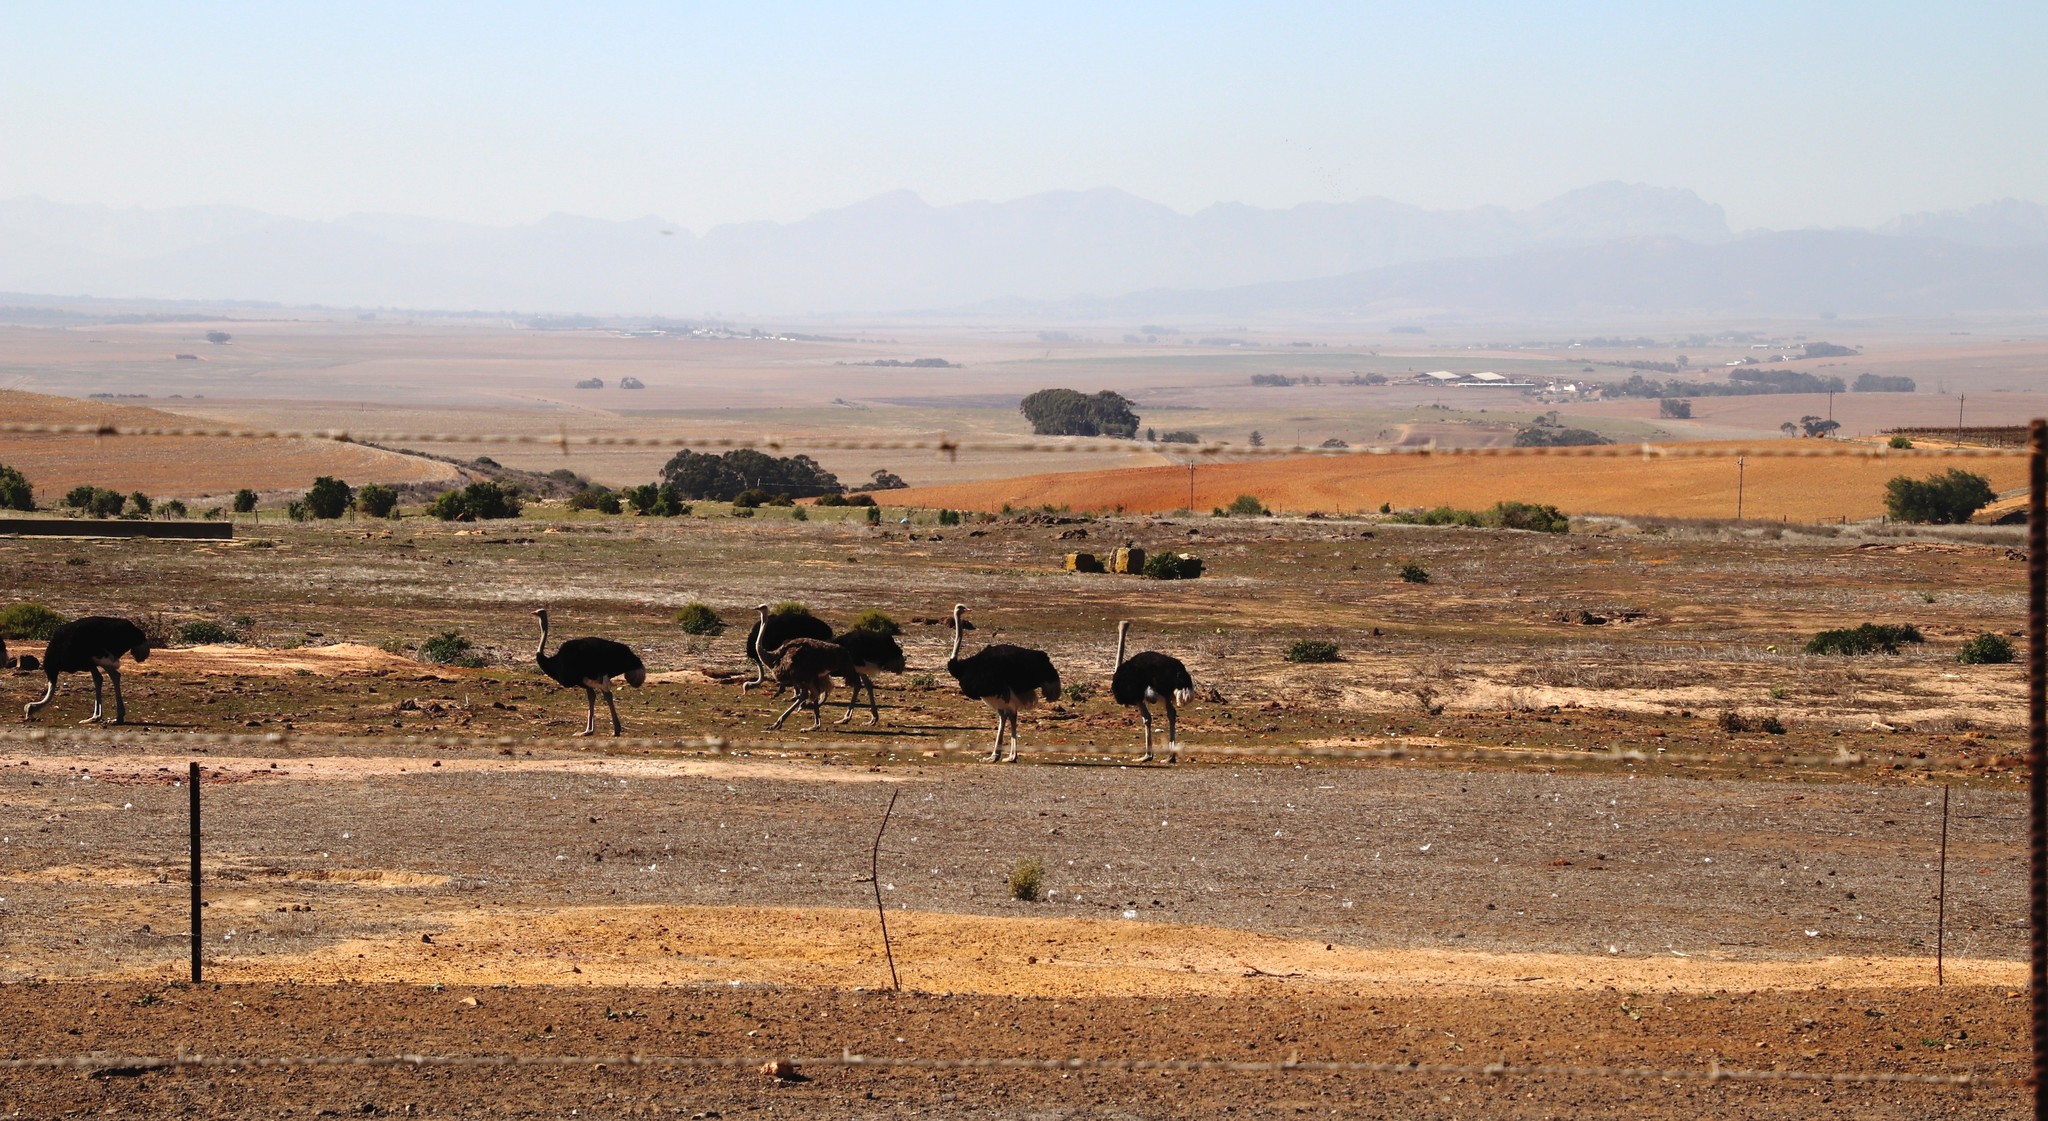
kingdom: Animalia
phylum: Chordata
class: Aves
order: Struthioniformes
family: Struthionidae
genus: Struthio
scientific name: Struthio camelus
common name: Common ostrich
